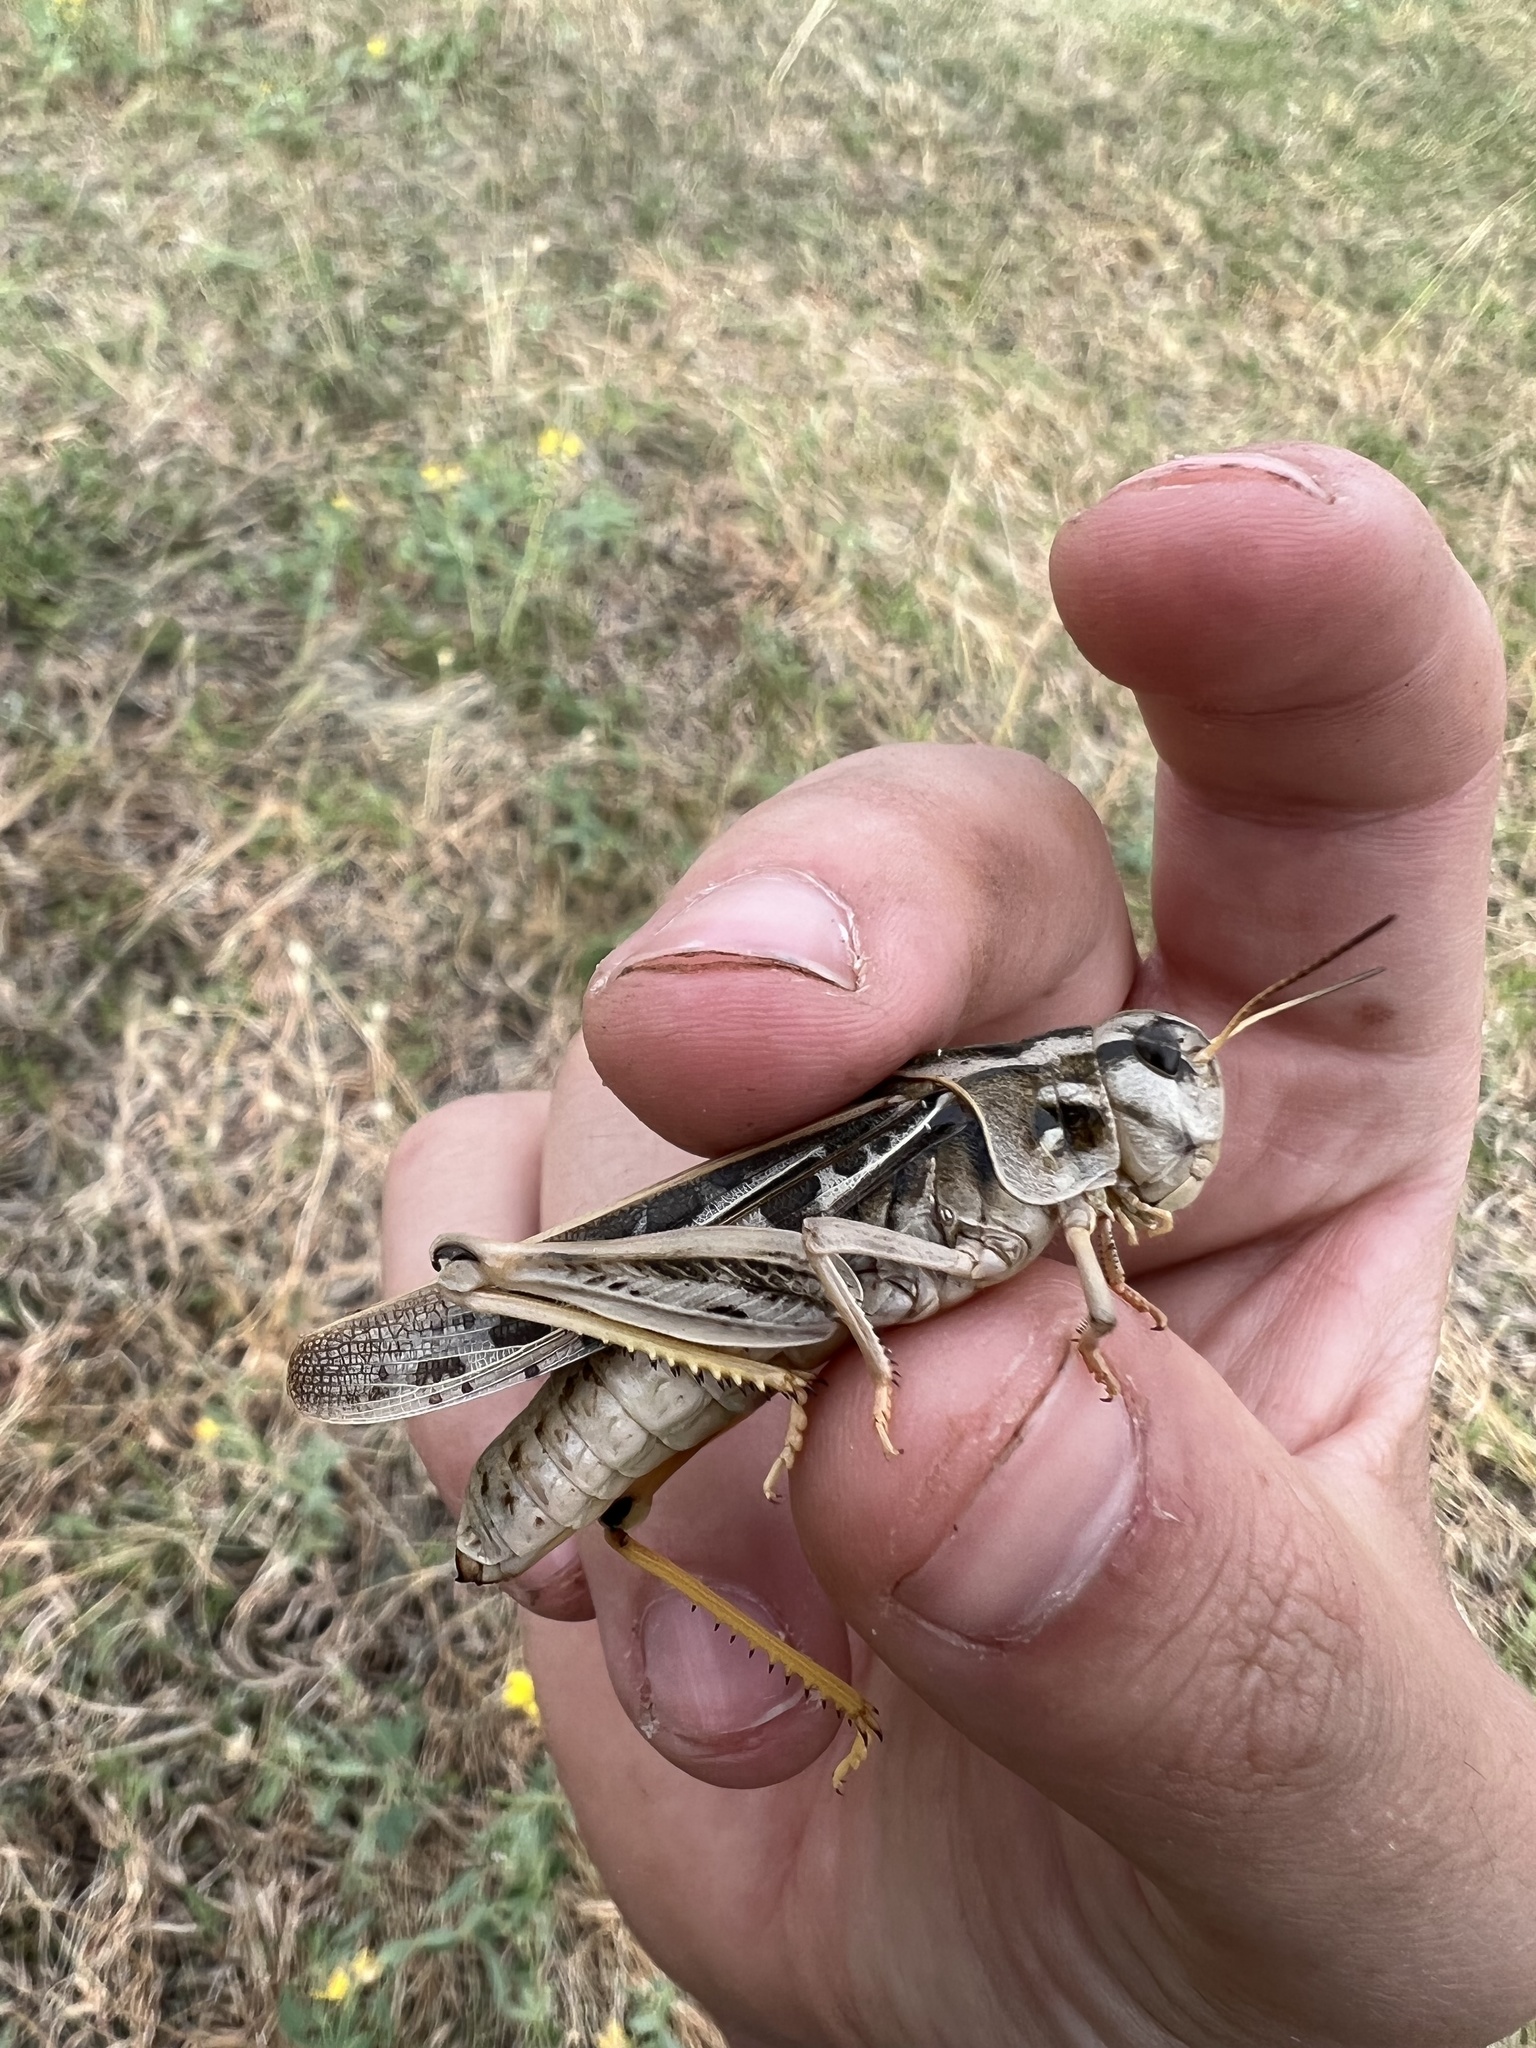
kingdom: Animalia
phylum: Arthropoda
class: Insecta
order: Orthoptera
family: Acrididae
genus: Pardalophora
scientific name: Pardalophora apiculata
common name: Coral-winged locust
